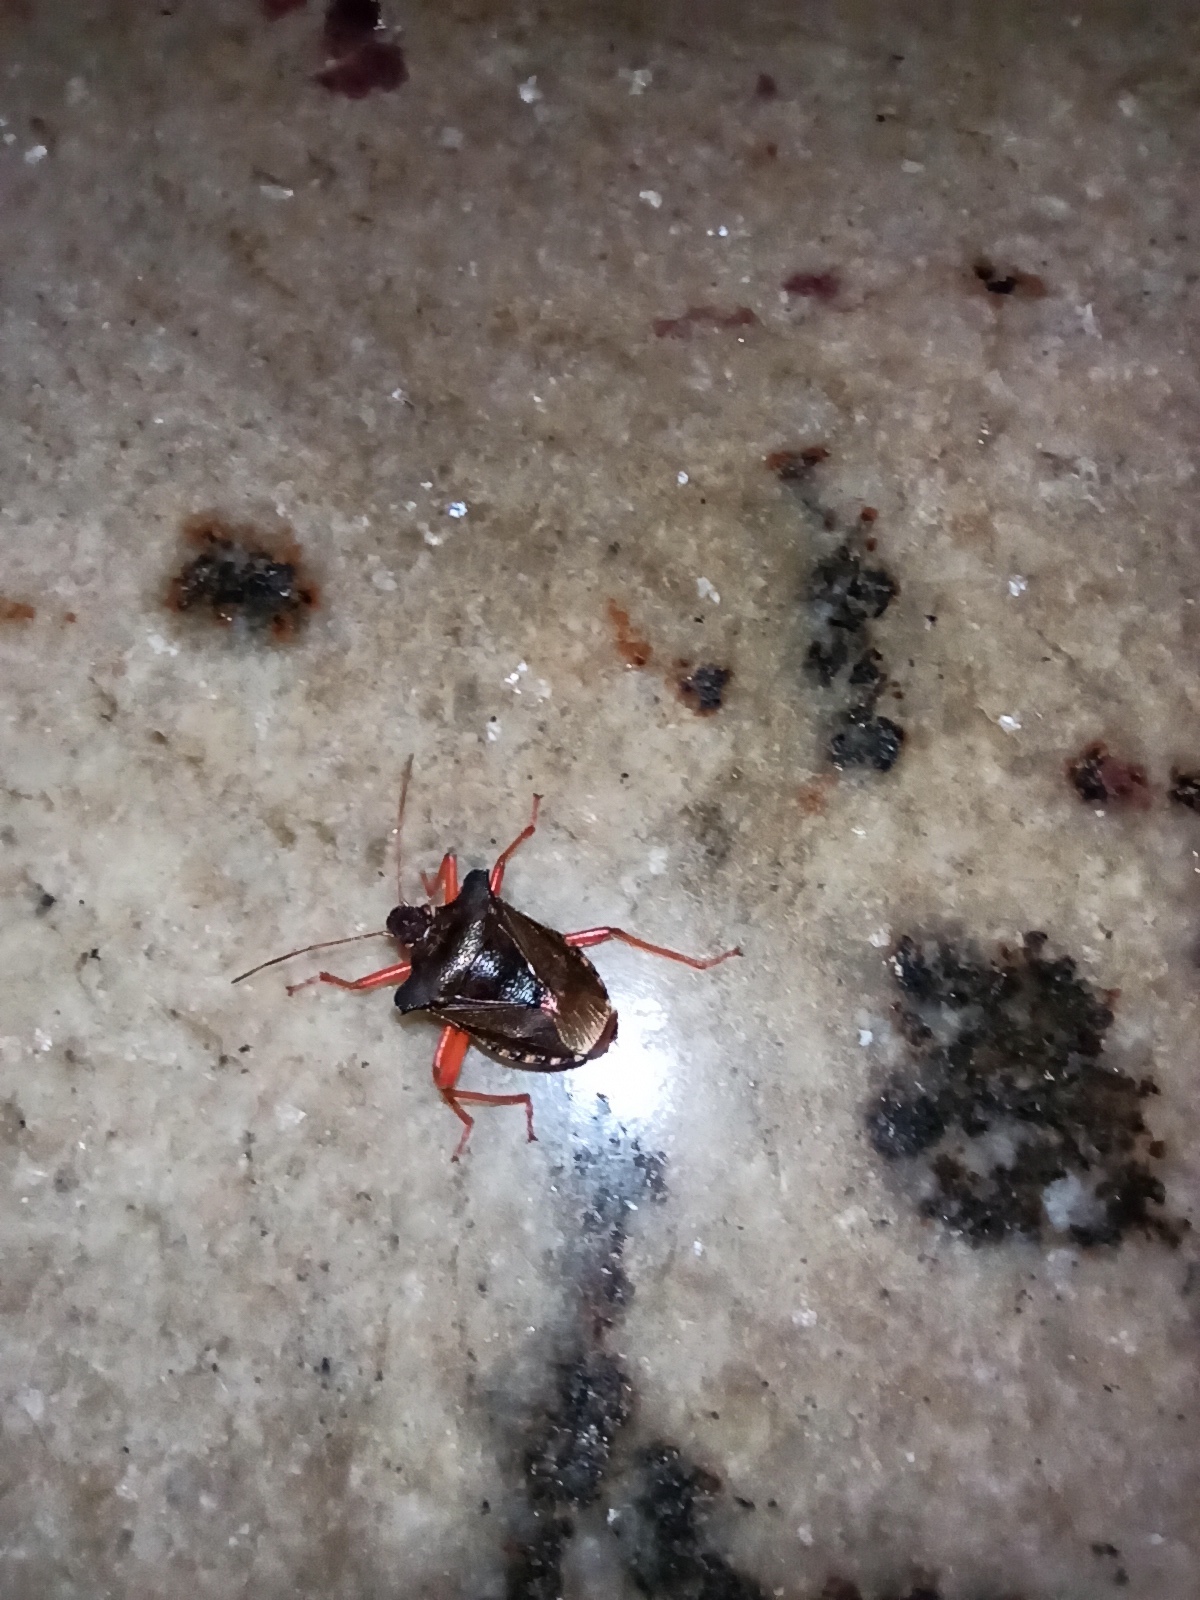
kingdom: Animalia
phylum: Arthropoda
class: Insecta
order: Hemiptera
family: Pentatomidae
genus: Pentatoma
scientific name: Pentatoma rufipes
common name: Forest bug
